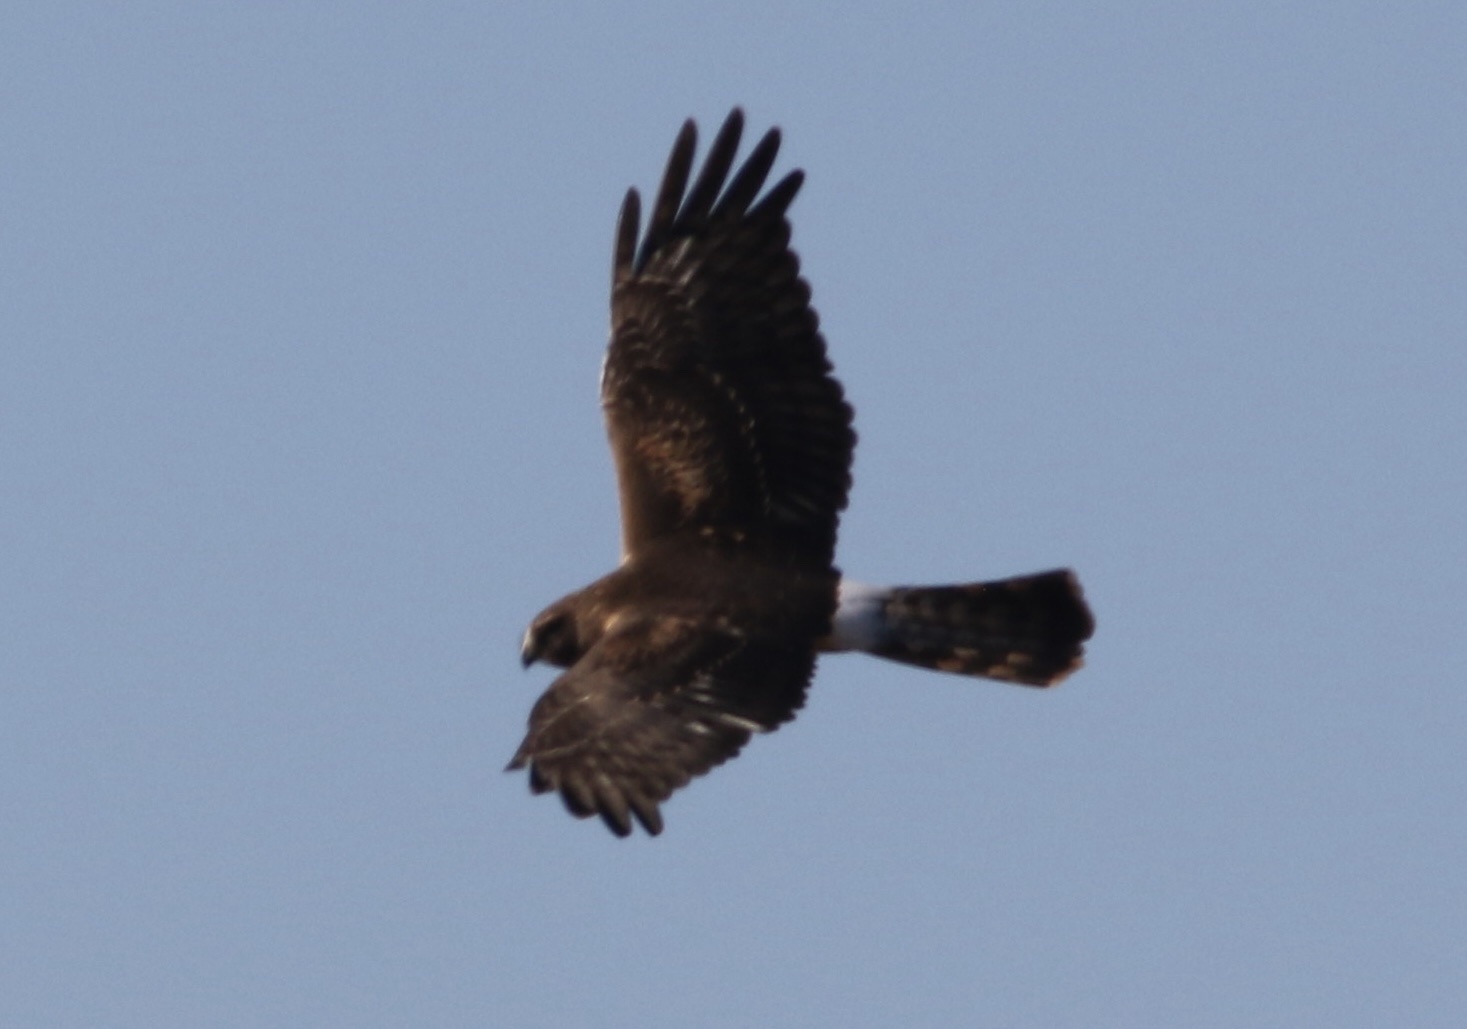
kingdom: Animalia
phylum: Chordata
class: Aves
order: Accipitriformes
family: Accipitridae
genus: Circus
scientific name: Circus cyaneus
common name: Hen harrier
